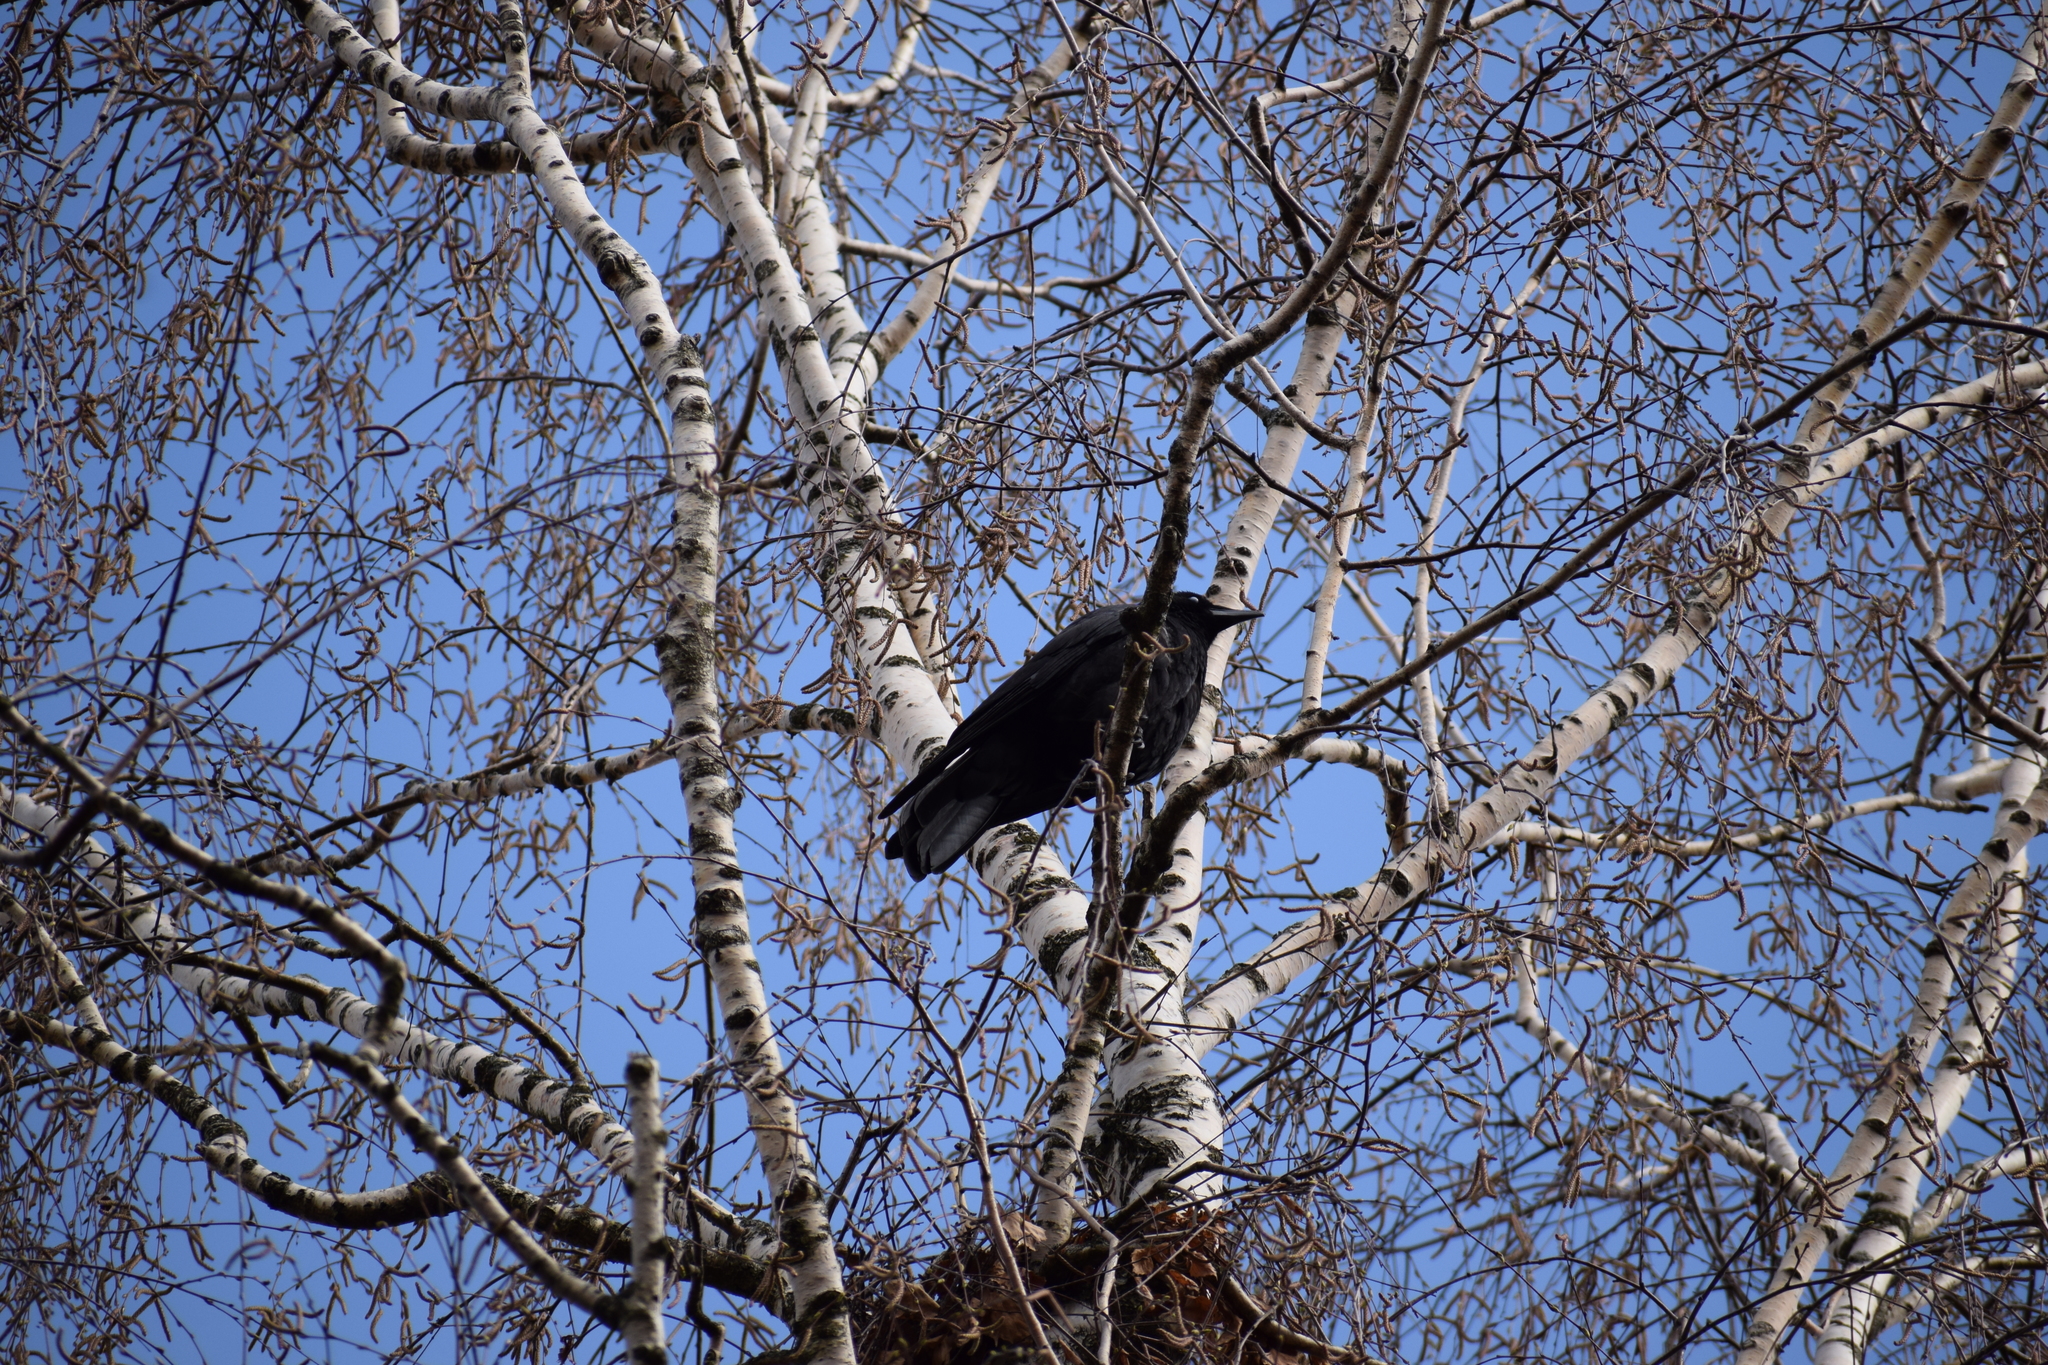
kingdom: Animalia
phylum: Chordata
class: Aves
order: Passeriformes
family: Corvidae
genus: Corvus
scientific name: Corvus corone
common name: Carrion crow
